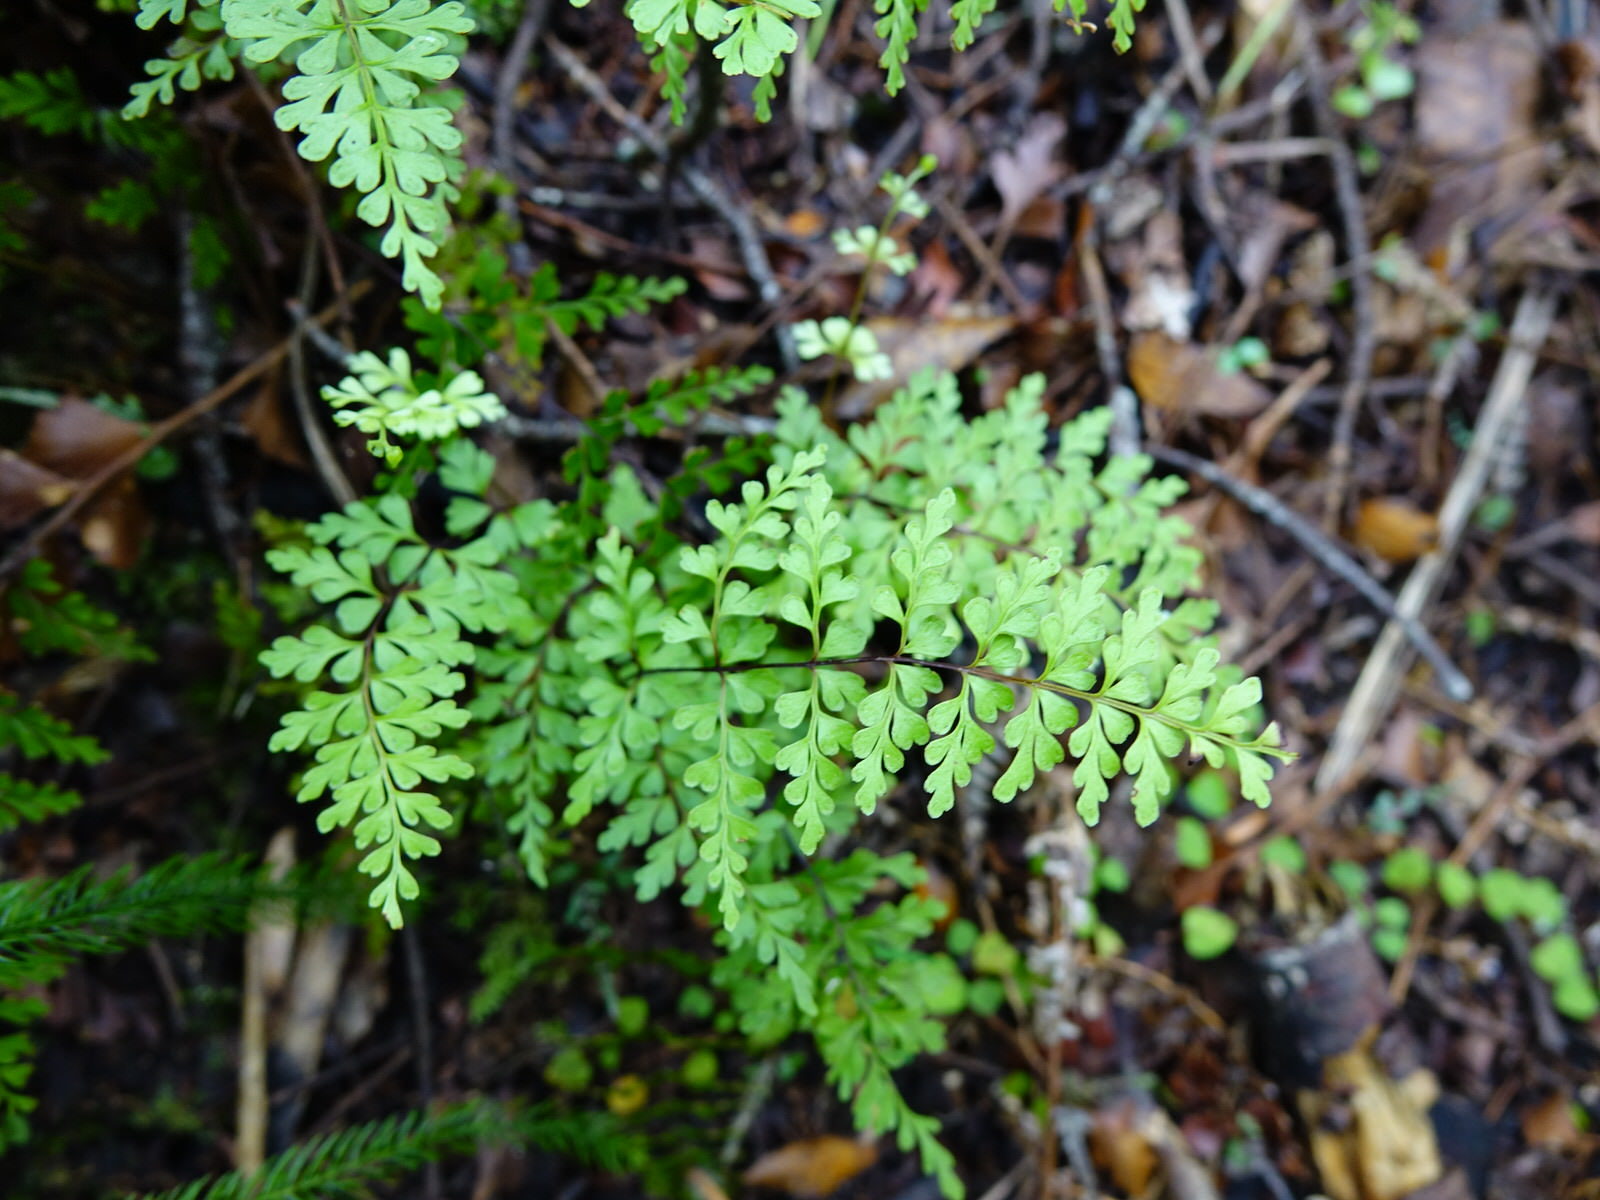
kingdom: Plantae
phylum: Tracheophyta
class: Polypodiopsida
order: Polypodiales
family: Lindsaeaceae
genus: Lindsaea
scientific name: Lindsaea trichomanoides
